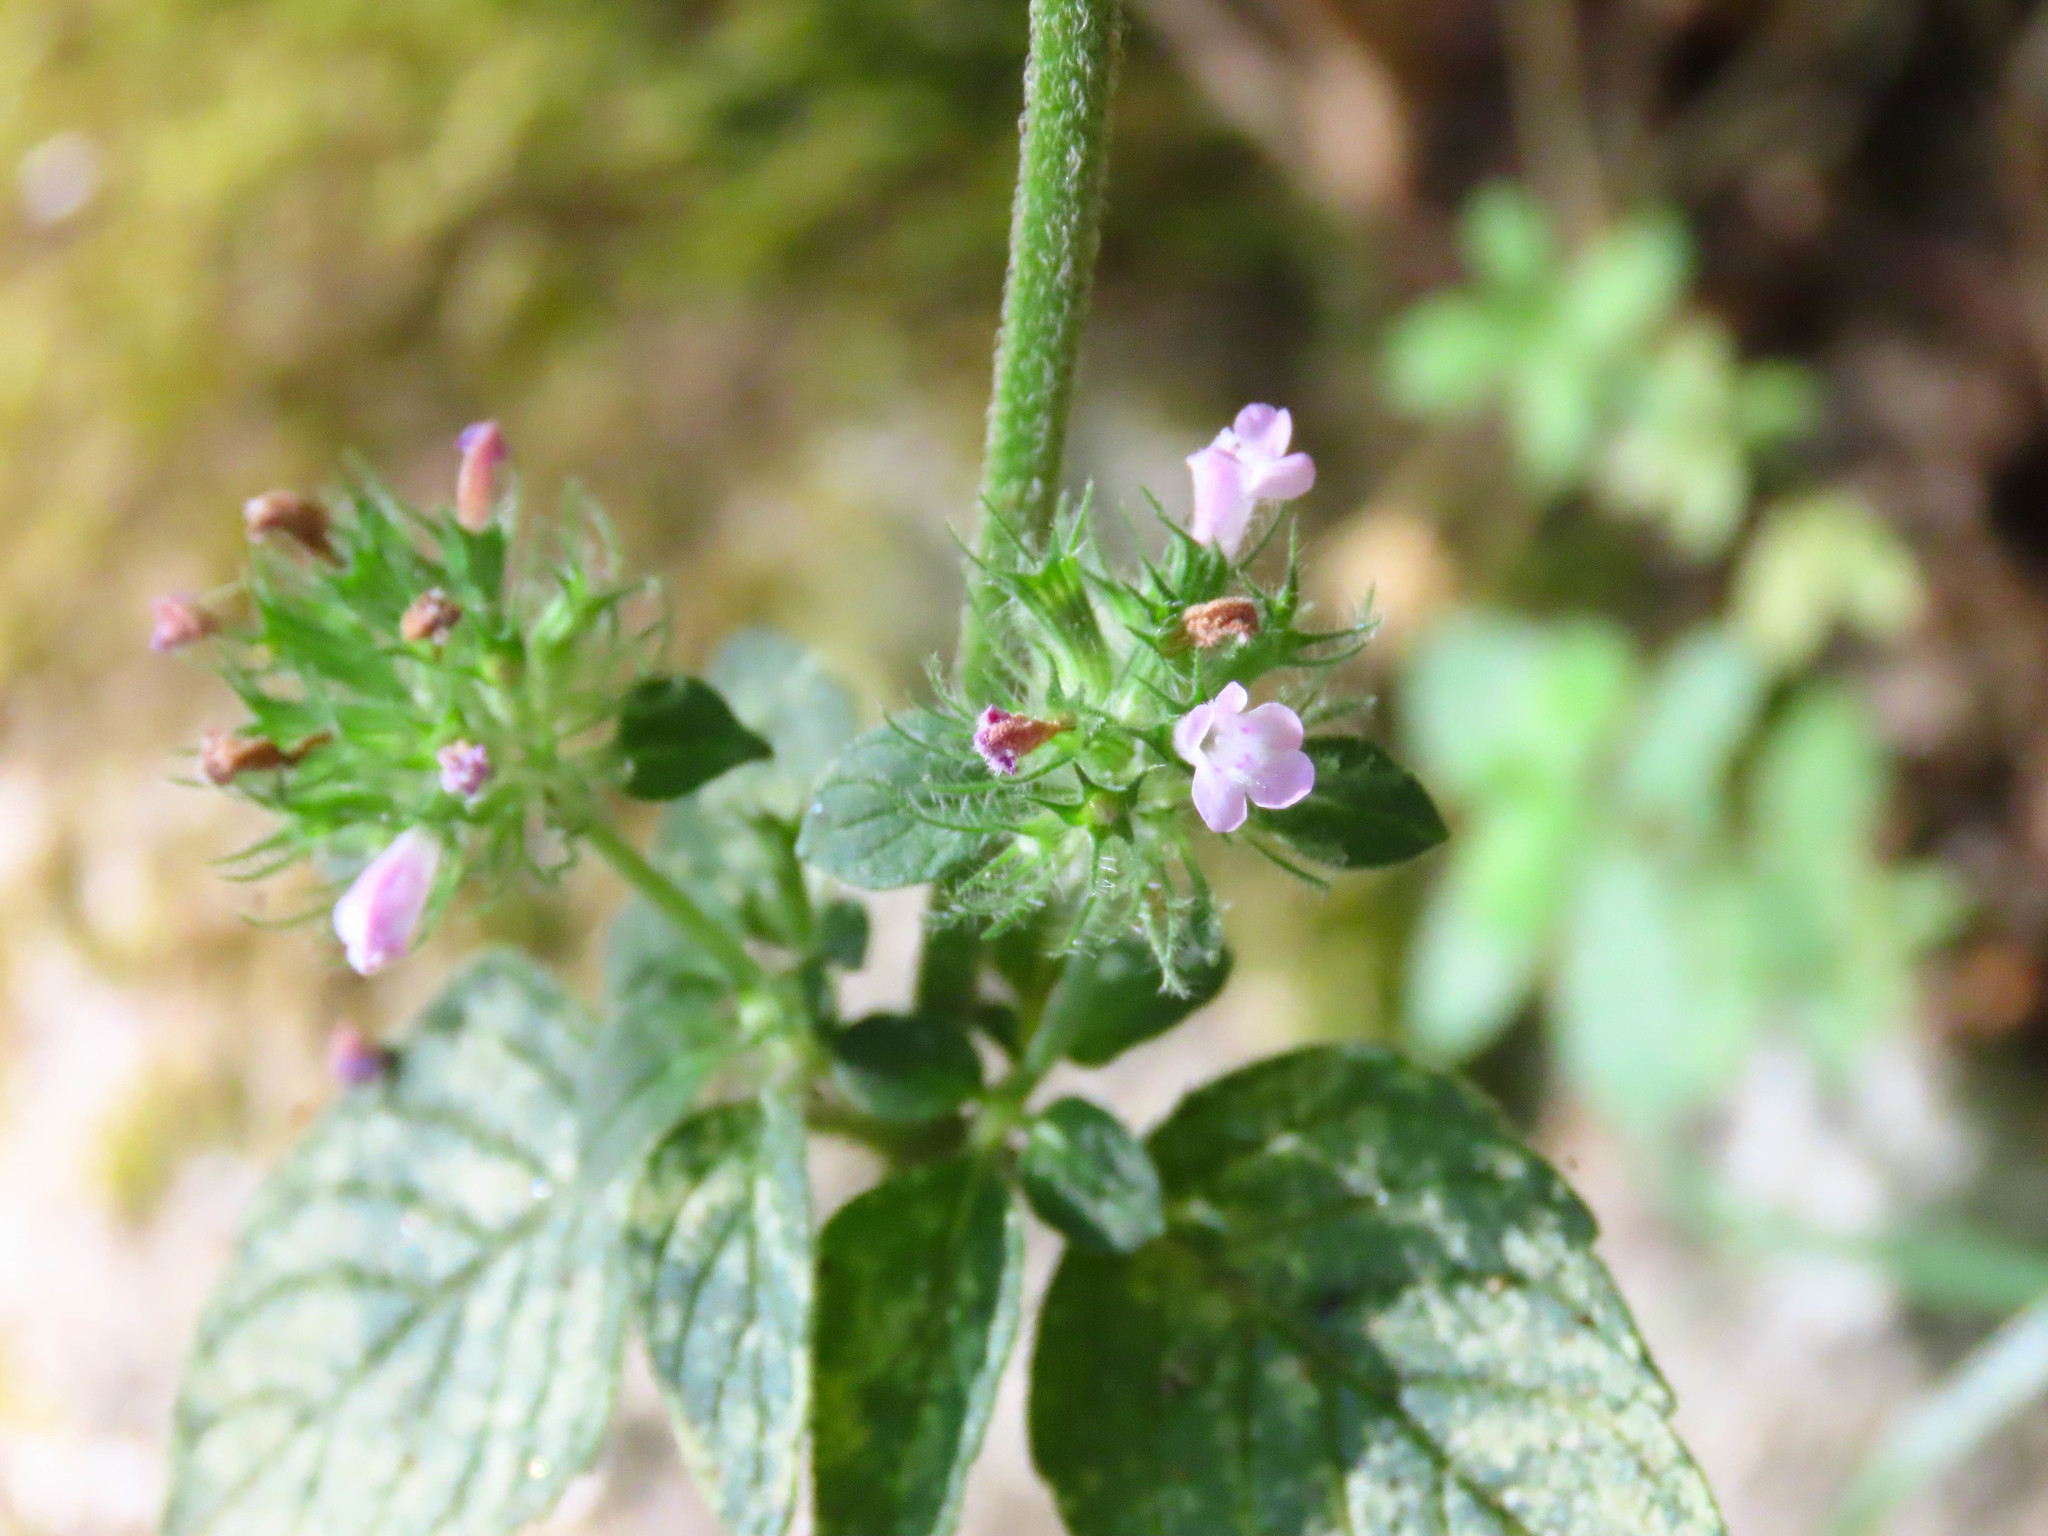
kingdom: Plantae
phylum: Tracheophyta
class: Magnoliopsida
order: Lamiales
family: Lamiaceae
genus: Clinopodium
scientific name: Clinopodium vulgare
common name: Wild basil
